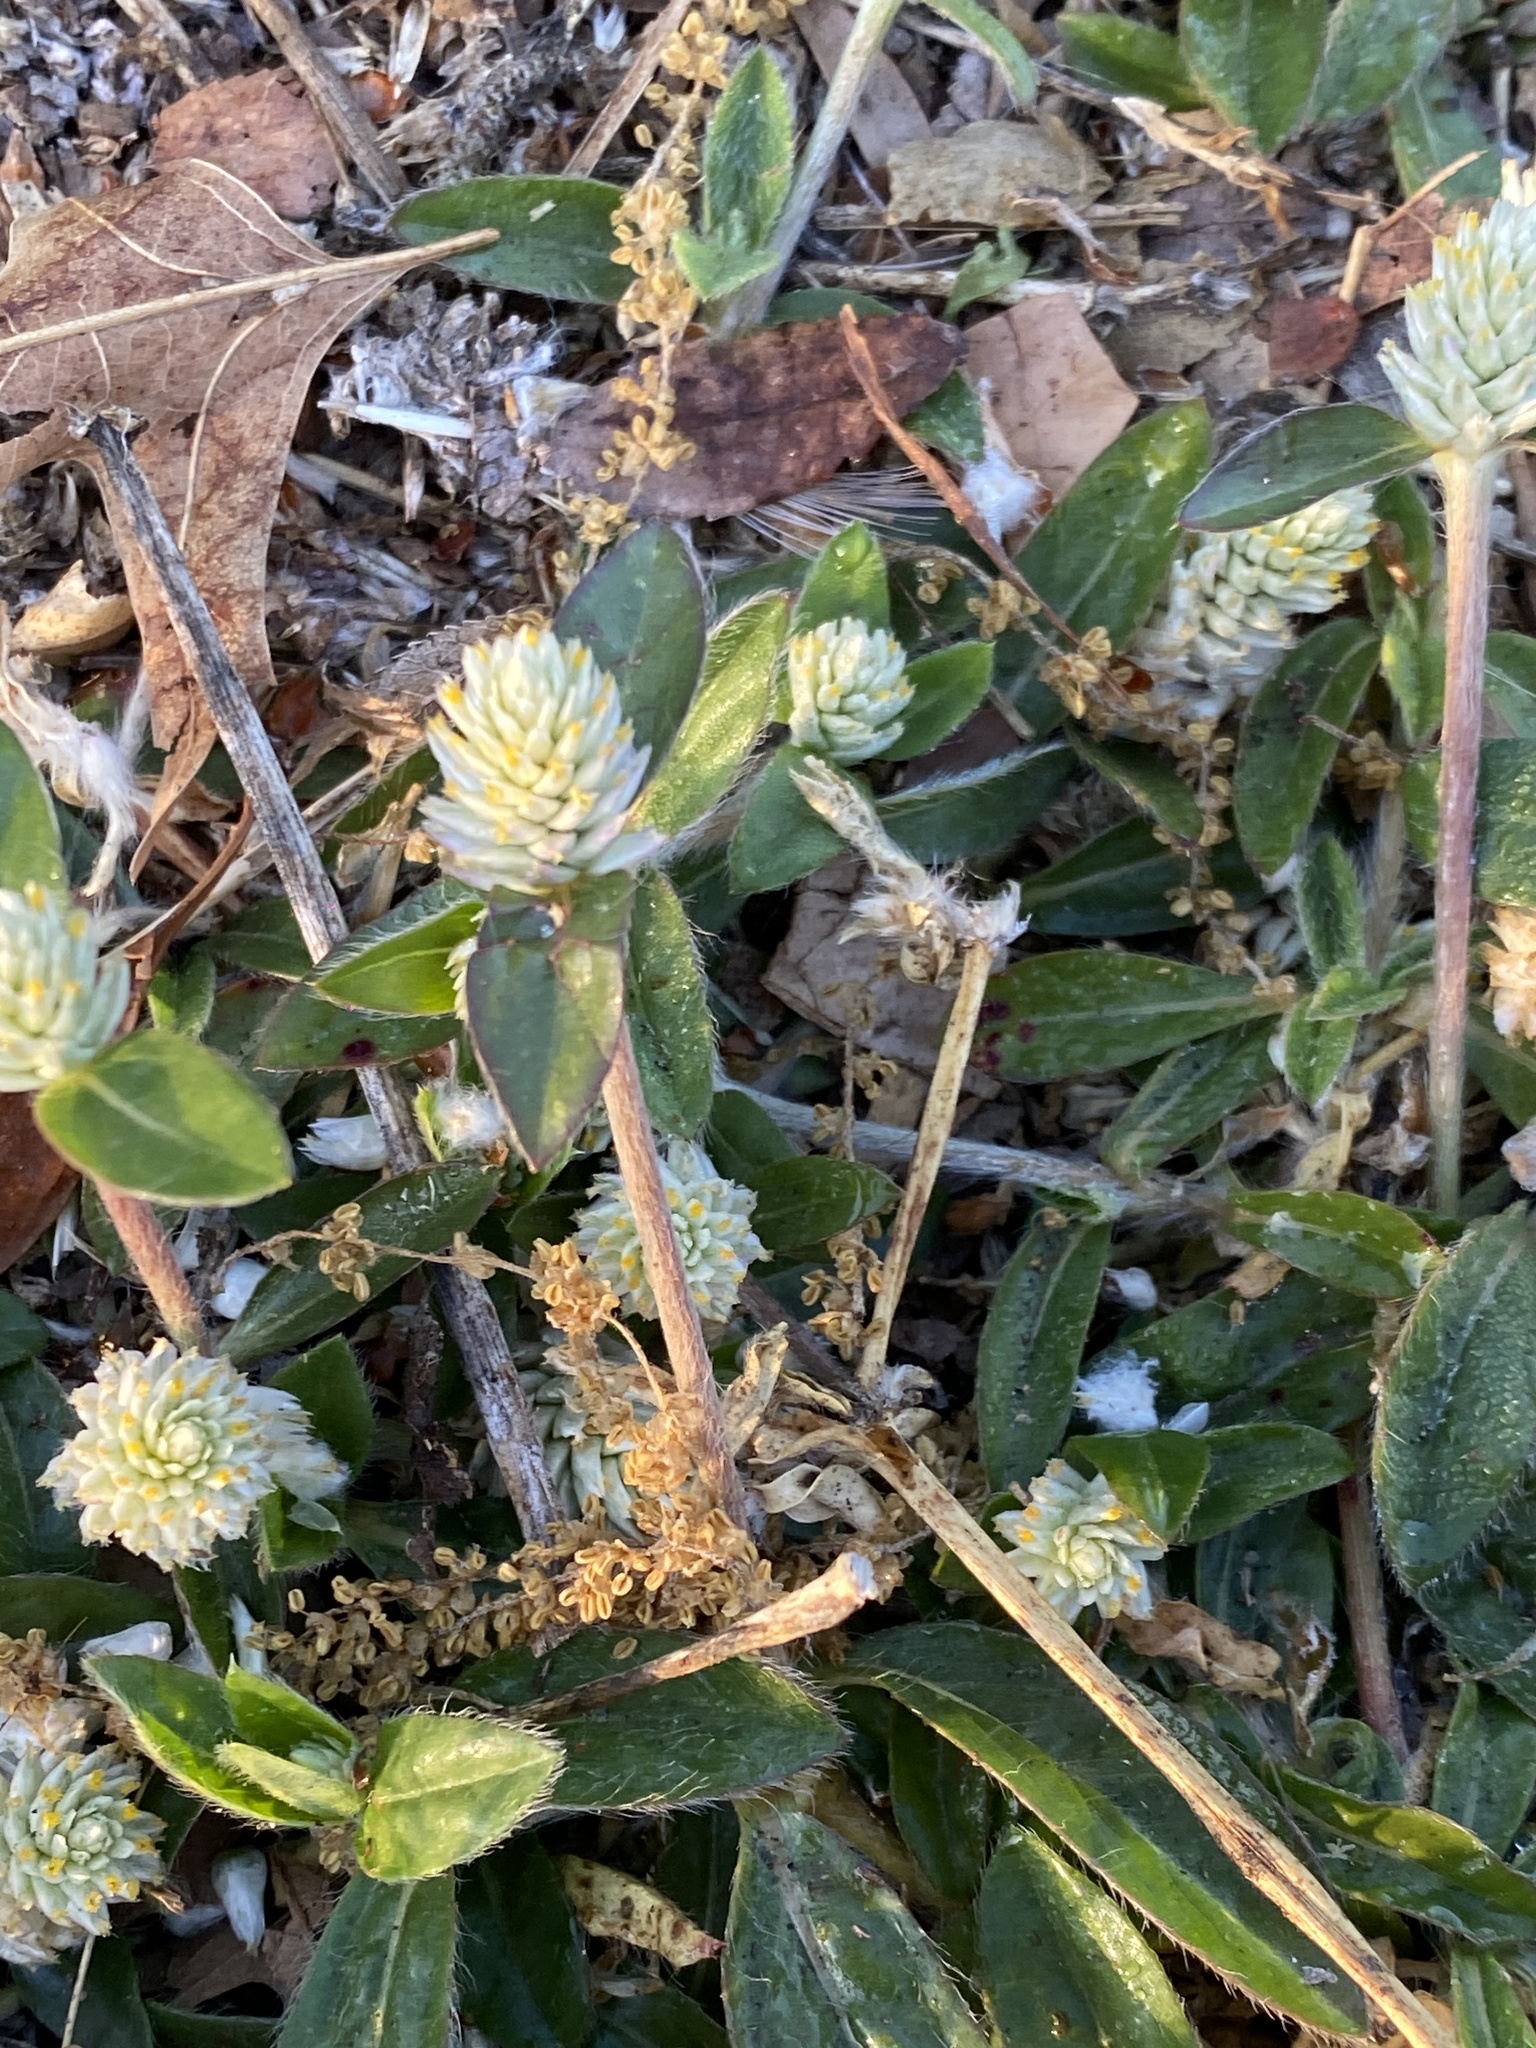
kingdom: Plantae
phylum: Tracheophyta
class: Magnoliopsida
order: Caryophyllales
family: Amaranthaceae
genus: Gomphrena
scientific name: Gomphrena celosioides
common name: Gomphrena-weed
